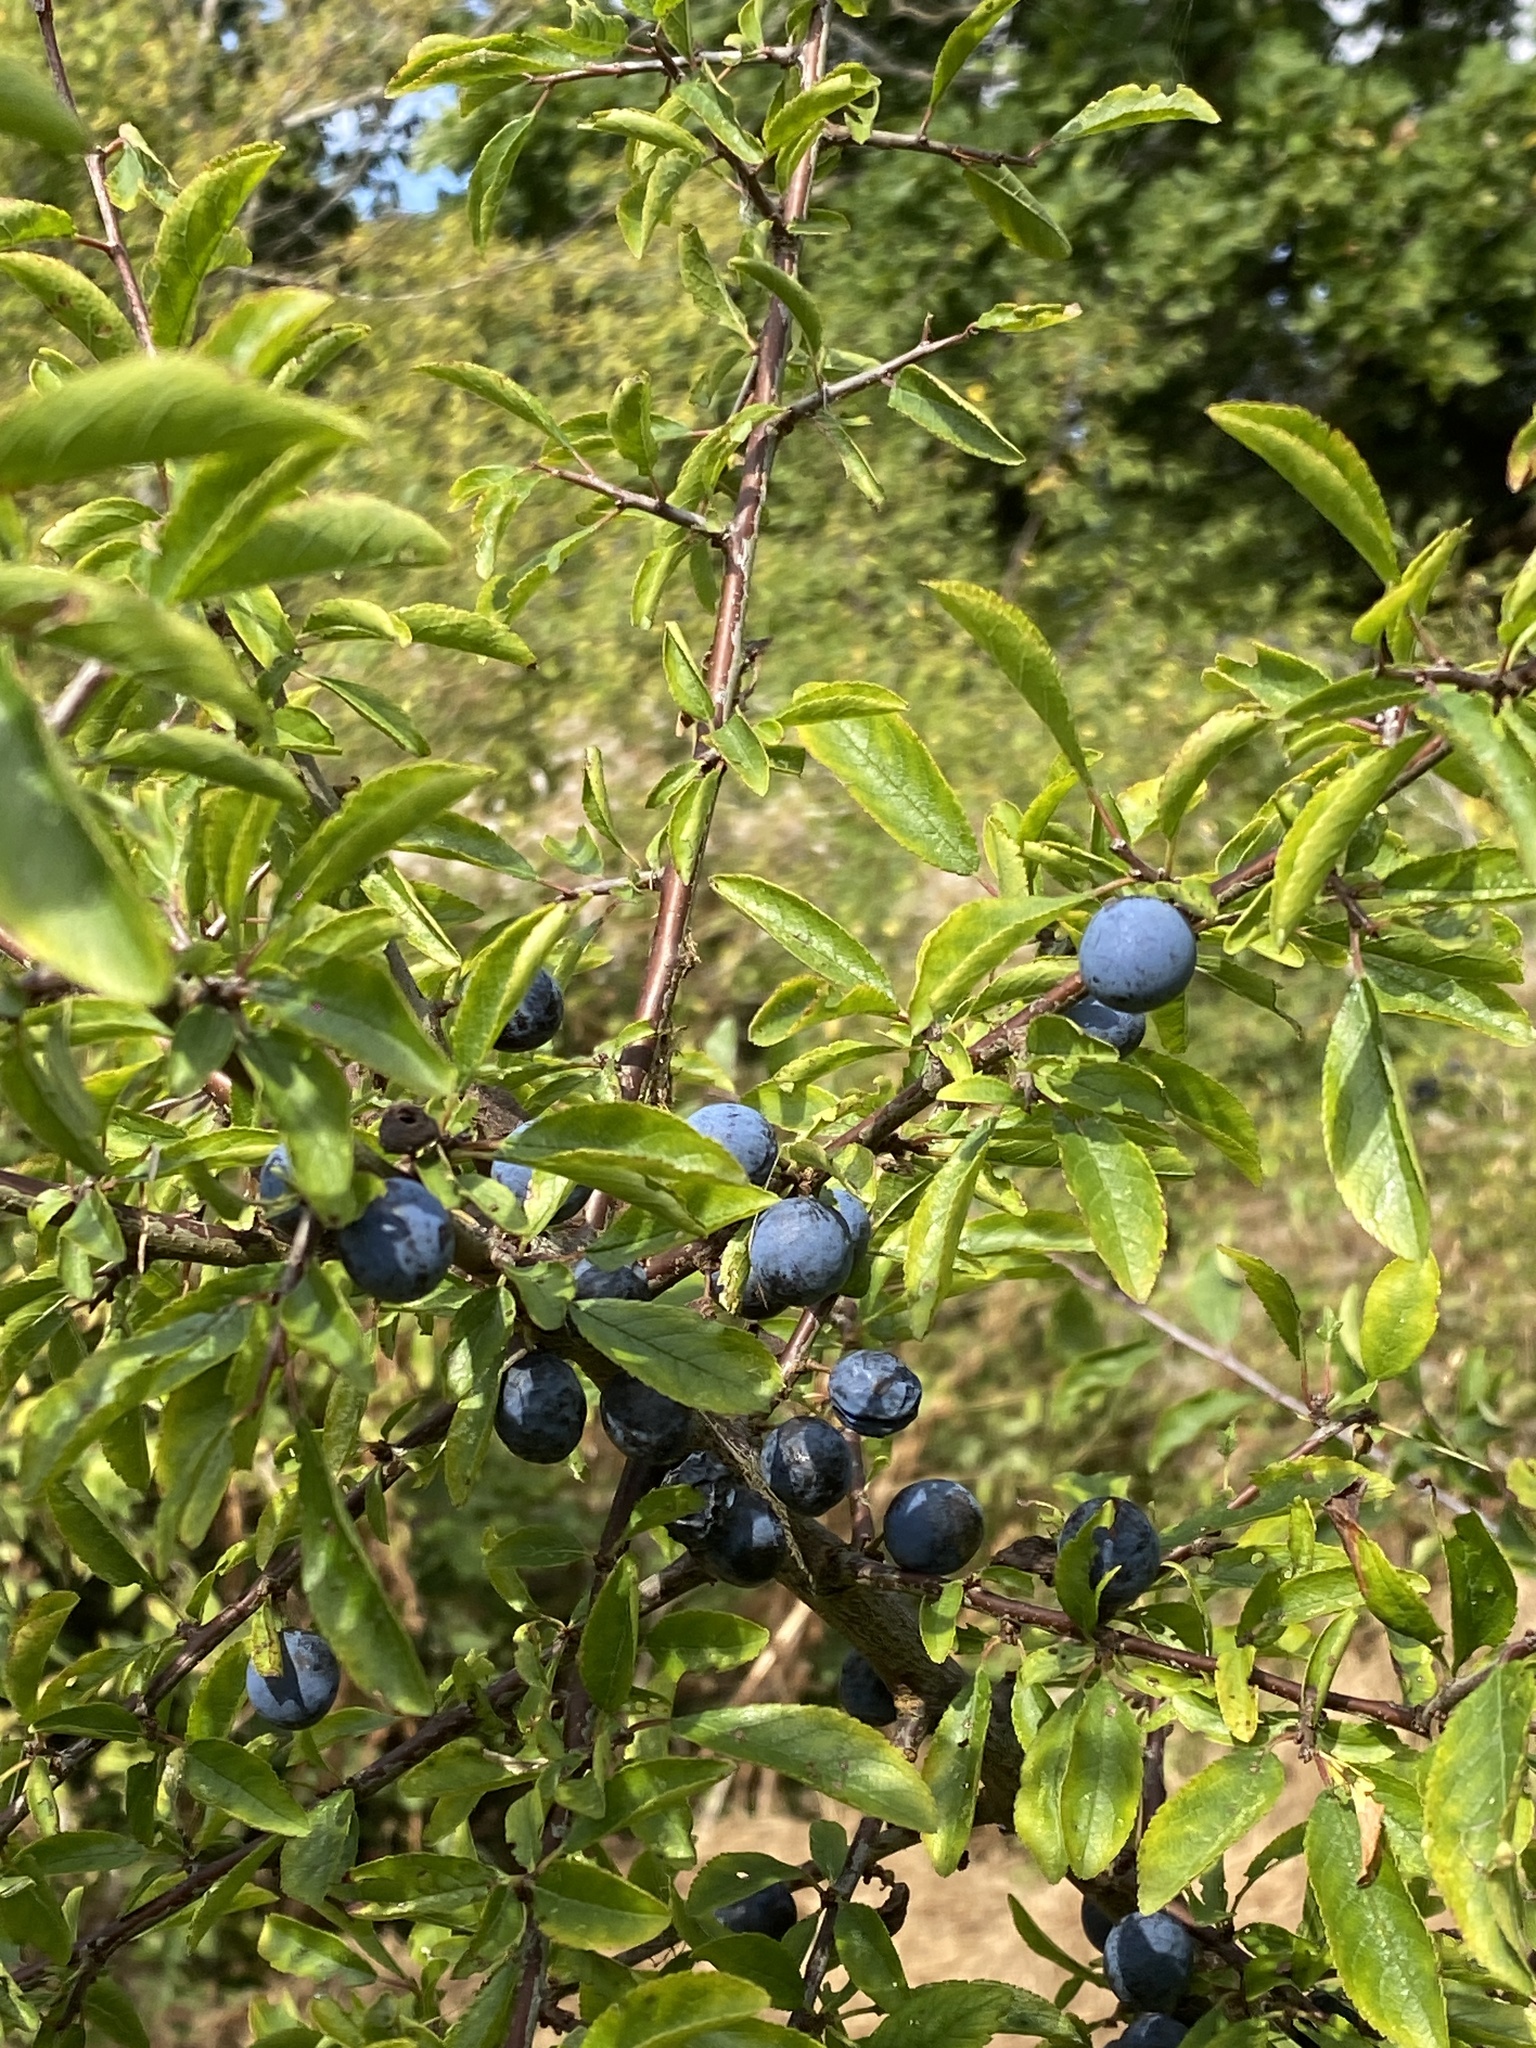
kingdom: Plantae
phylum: Tracheophyta
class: Magnoliopsida
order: Rosales
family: Rosaceae
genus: Prunus
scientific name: Prunus spinosa
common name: Blackthorn
